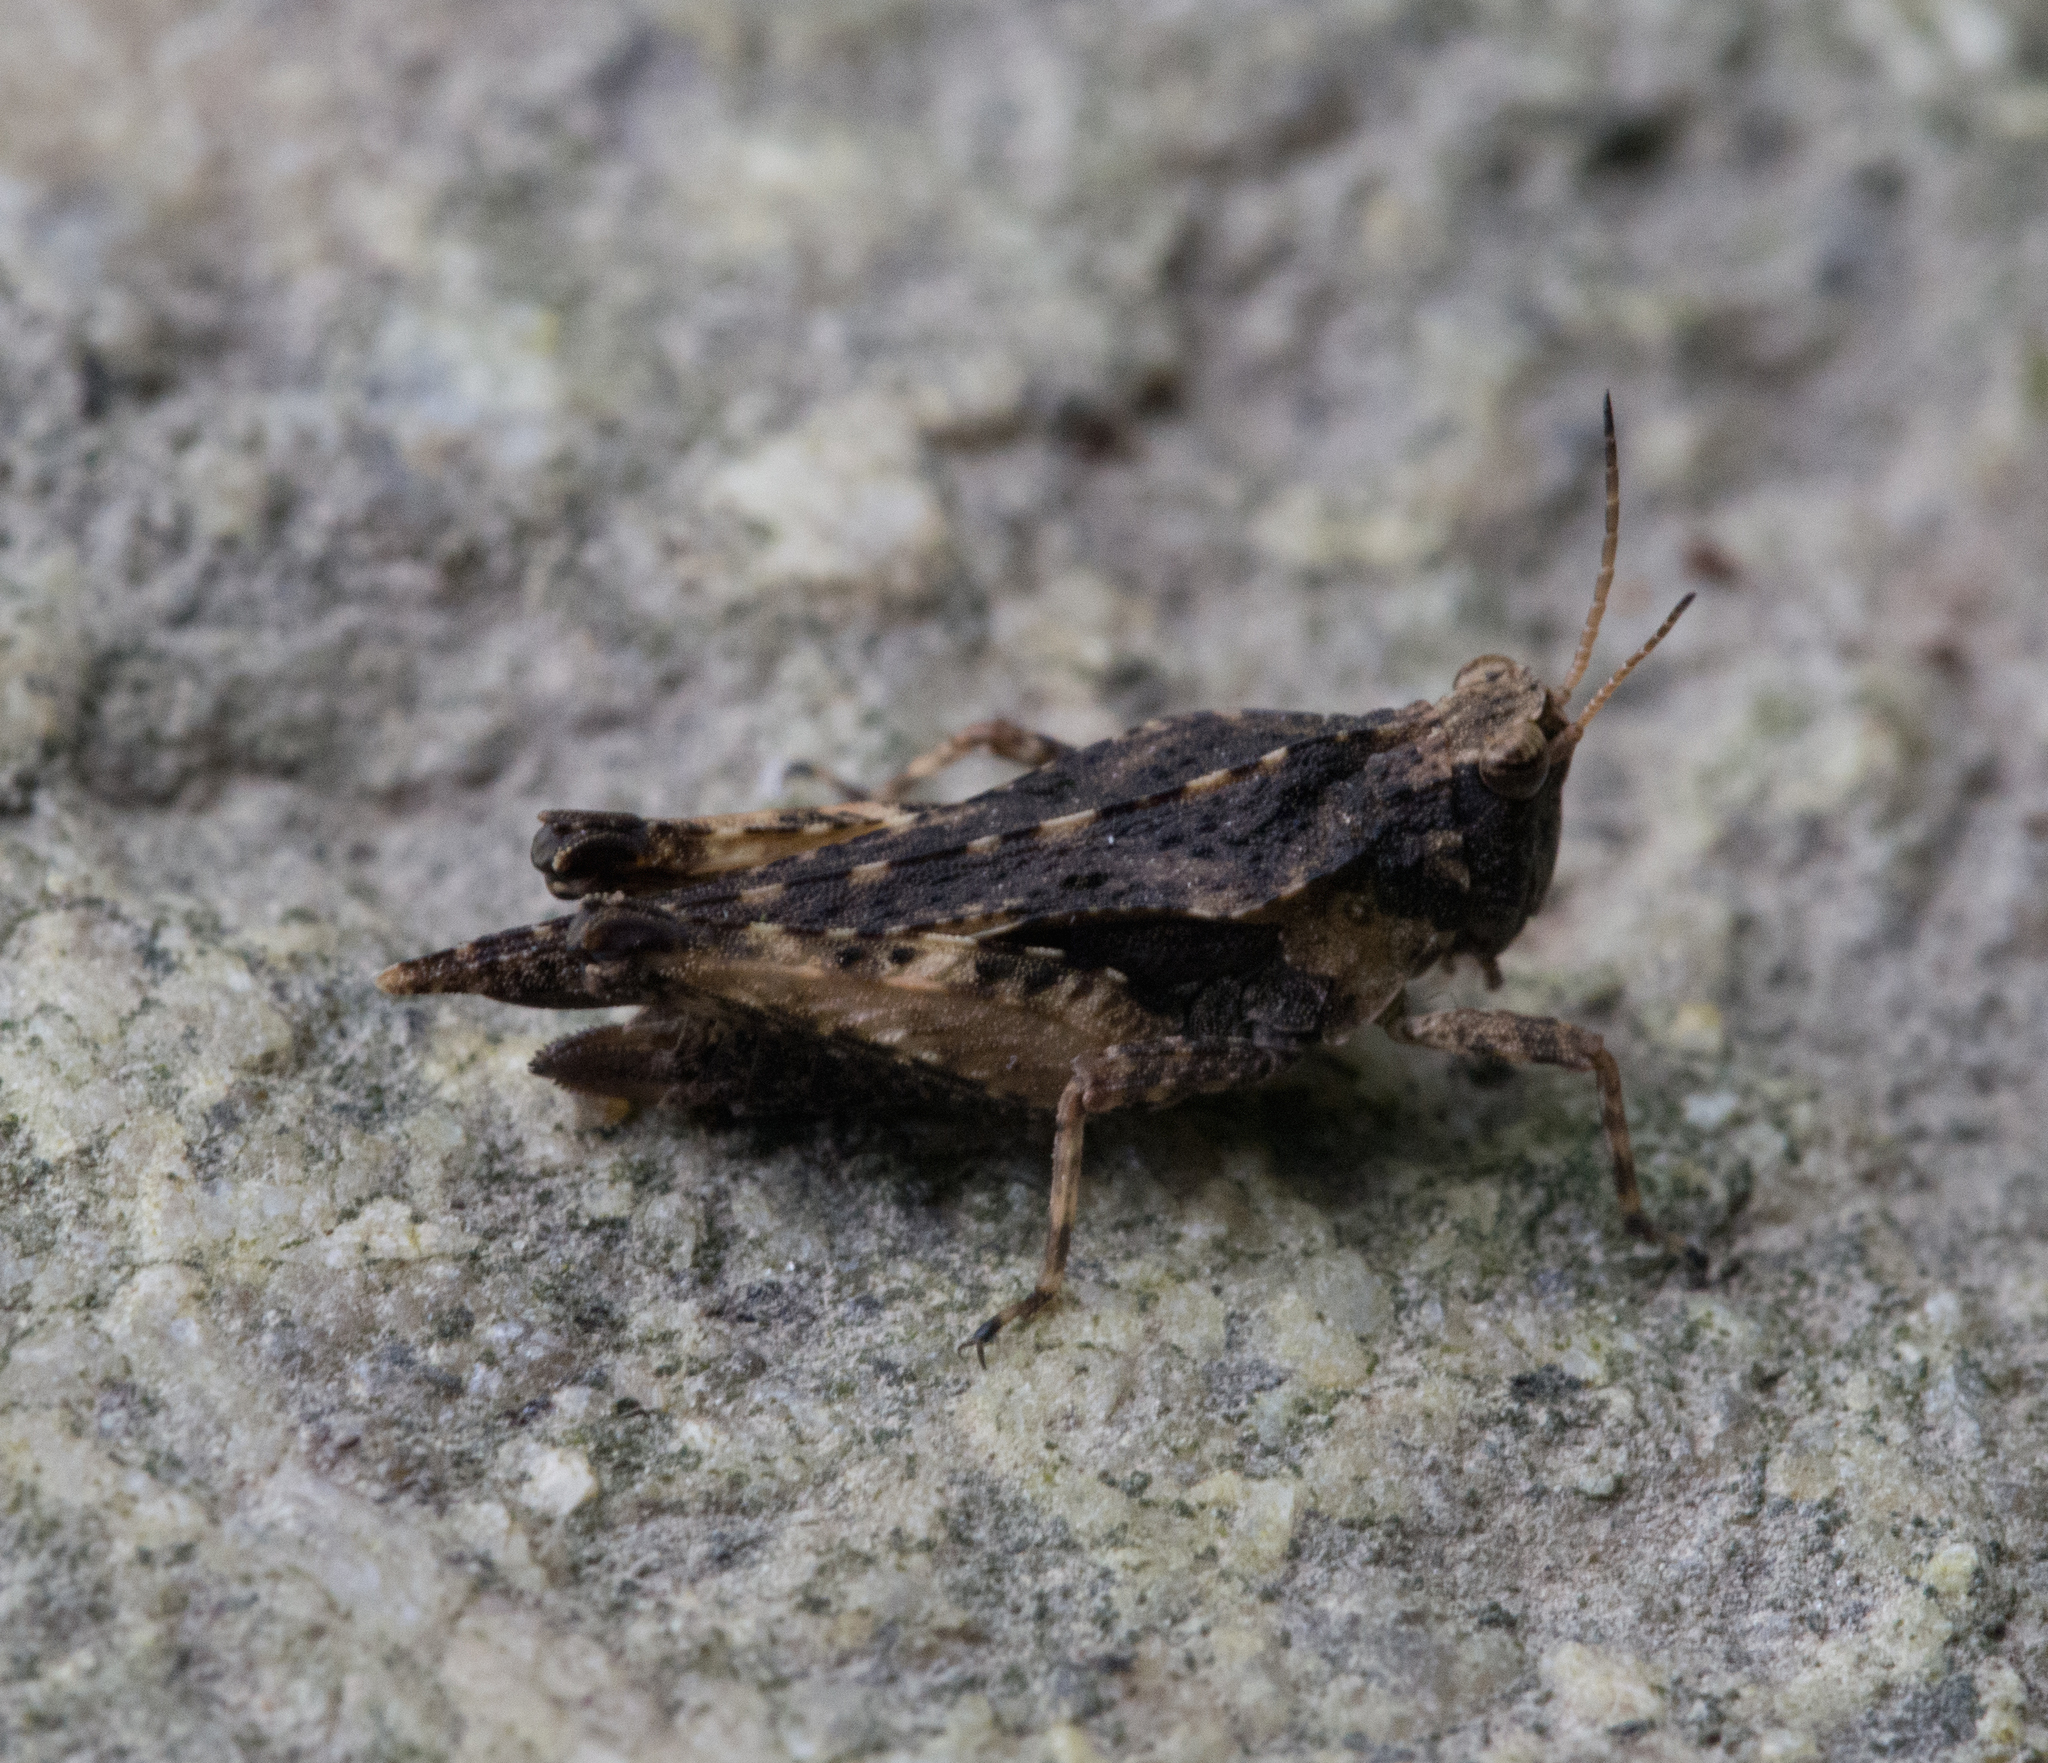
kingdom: Animalia
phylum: Arthropoda
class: Insecta
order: Orthoptera
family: Tetrigidae
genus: Tetrix
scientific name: Tetrix subulata
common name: Slender ground-hopper
